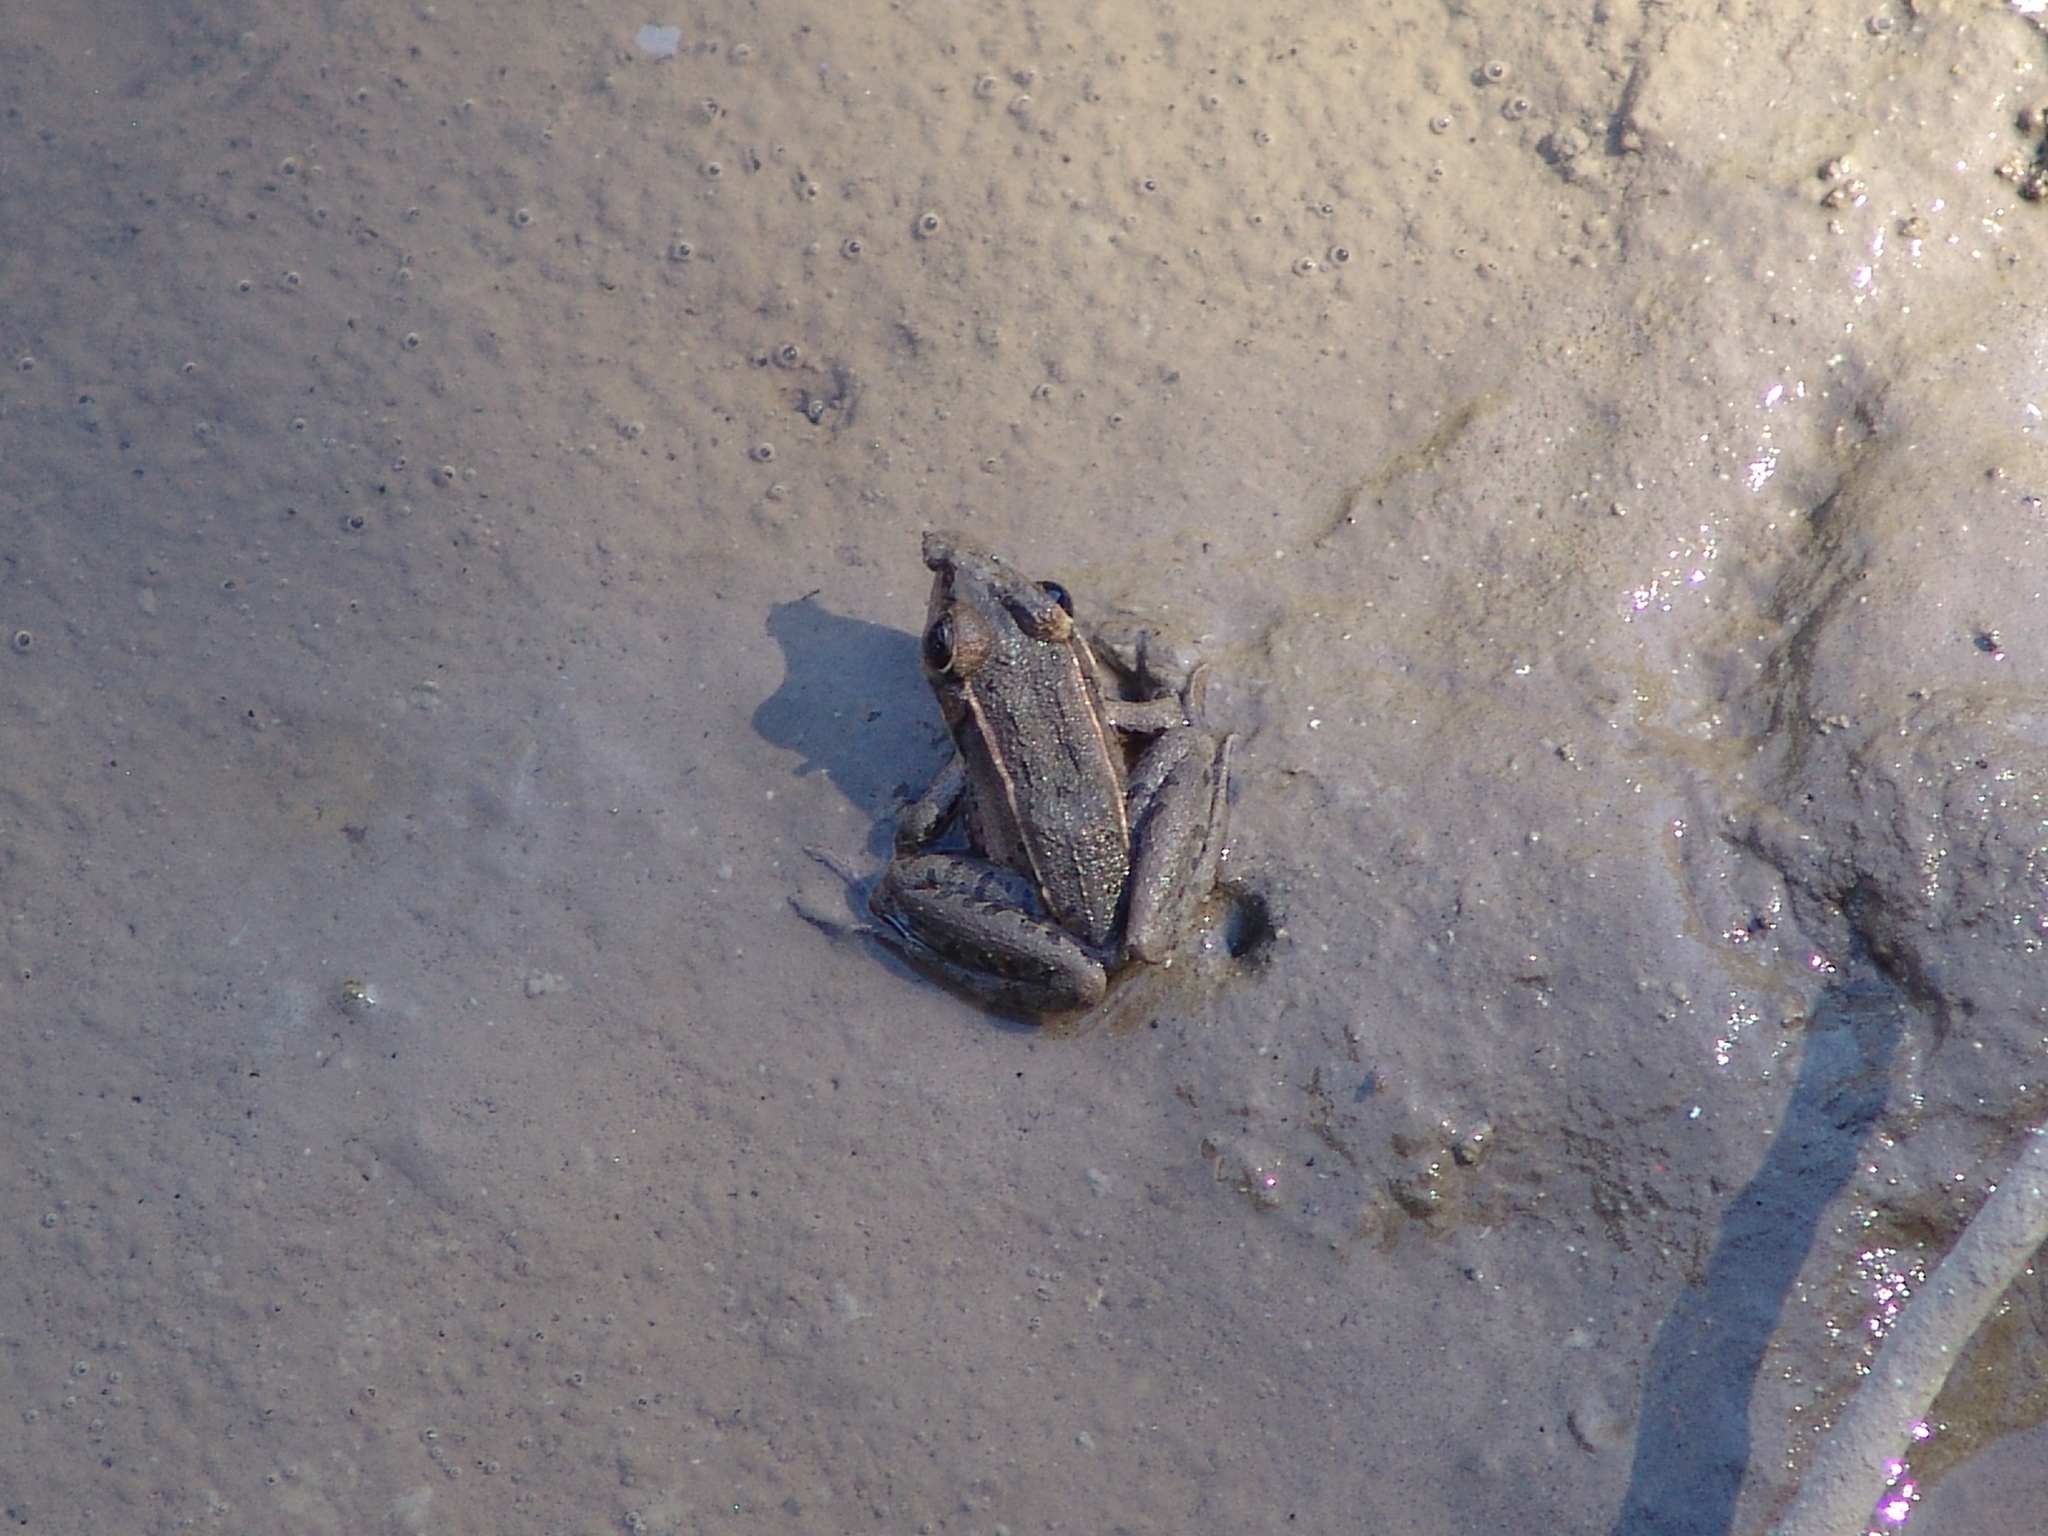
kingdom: Animalia
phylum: Chordata
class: Amphibia
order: Anura
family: Ranidae
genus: Lithobates
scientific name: Lithobates sphenocephalus
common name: Southern leopard frog
